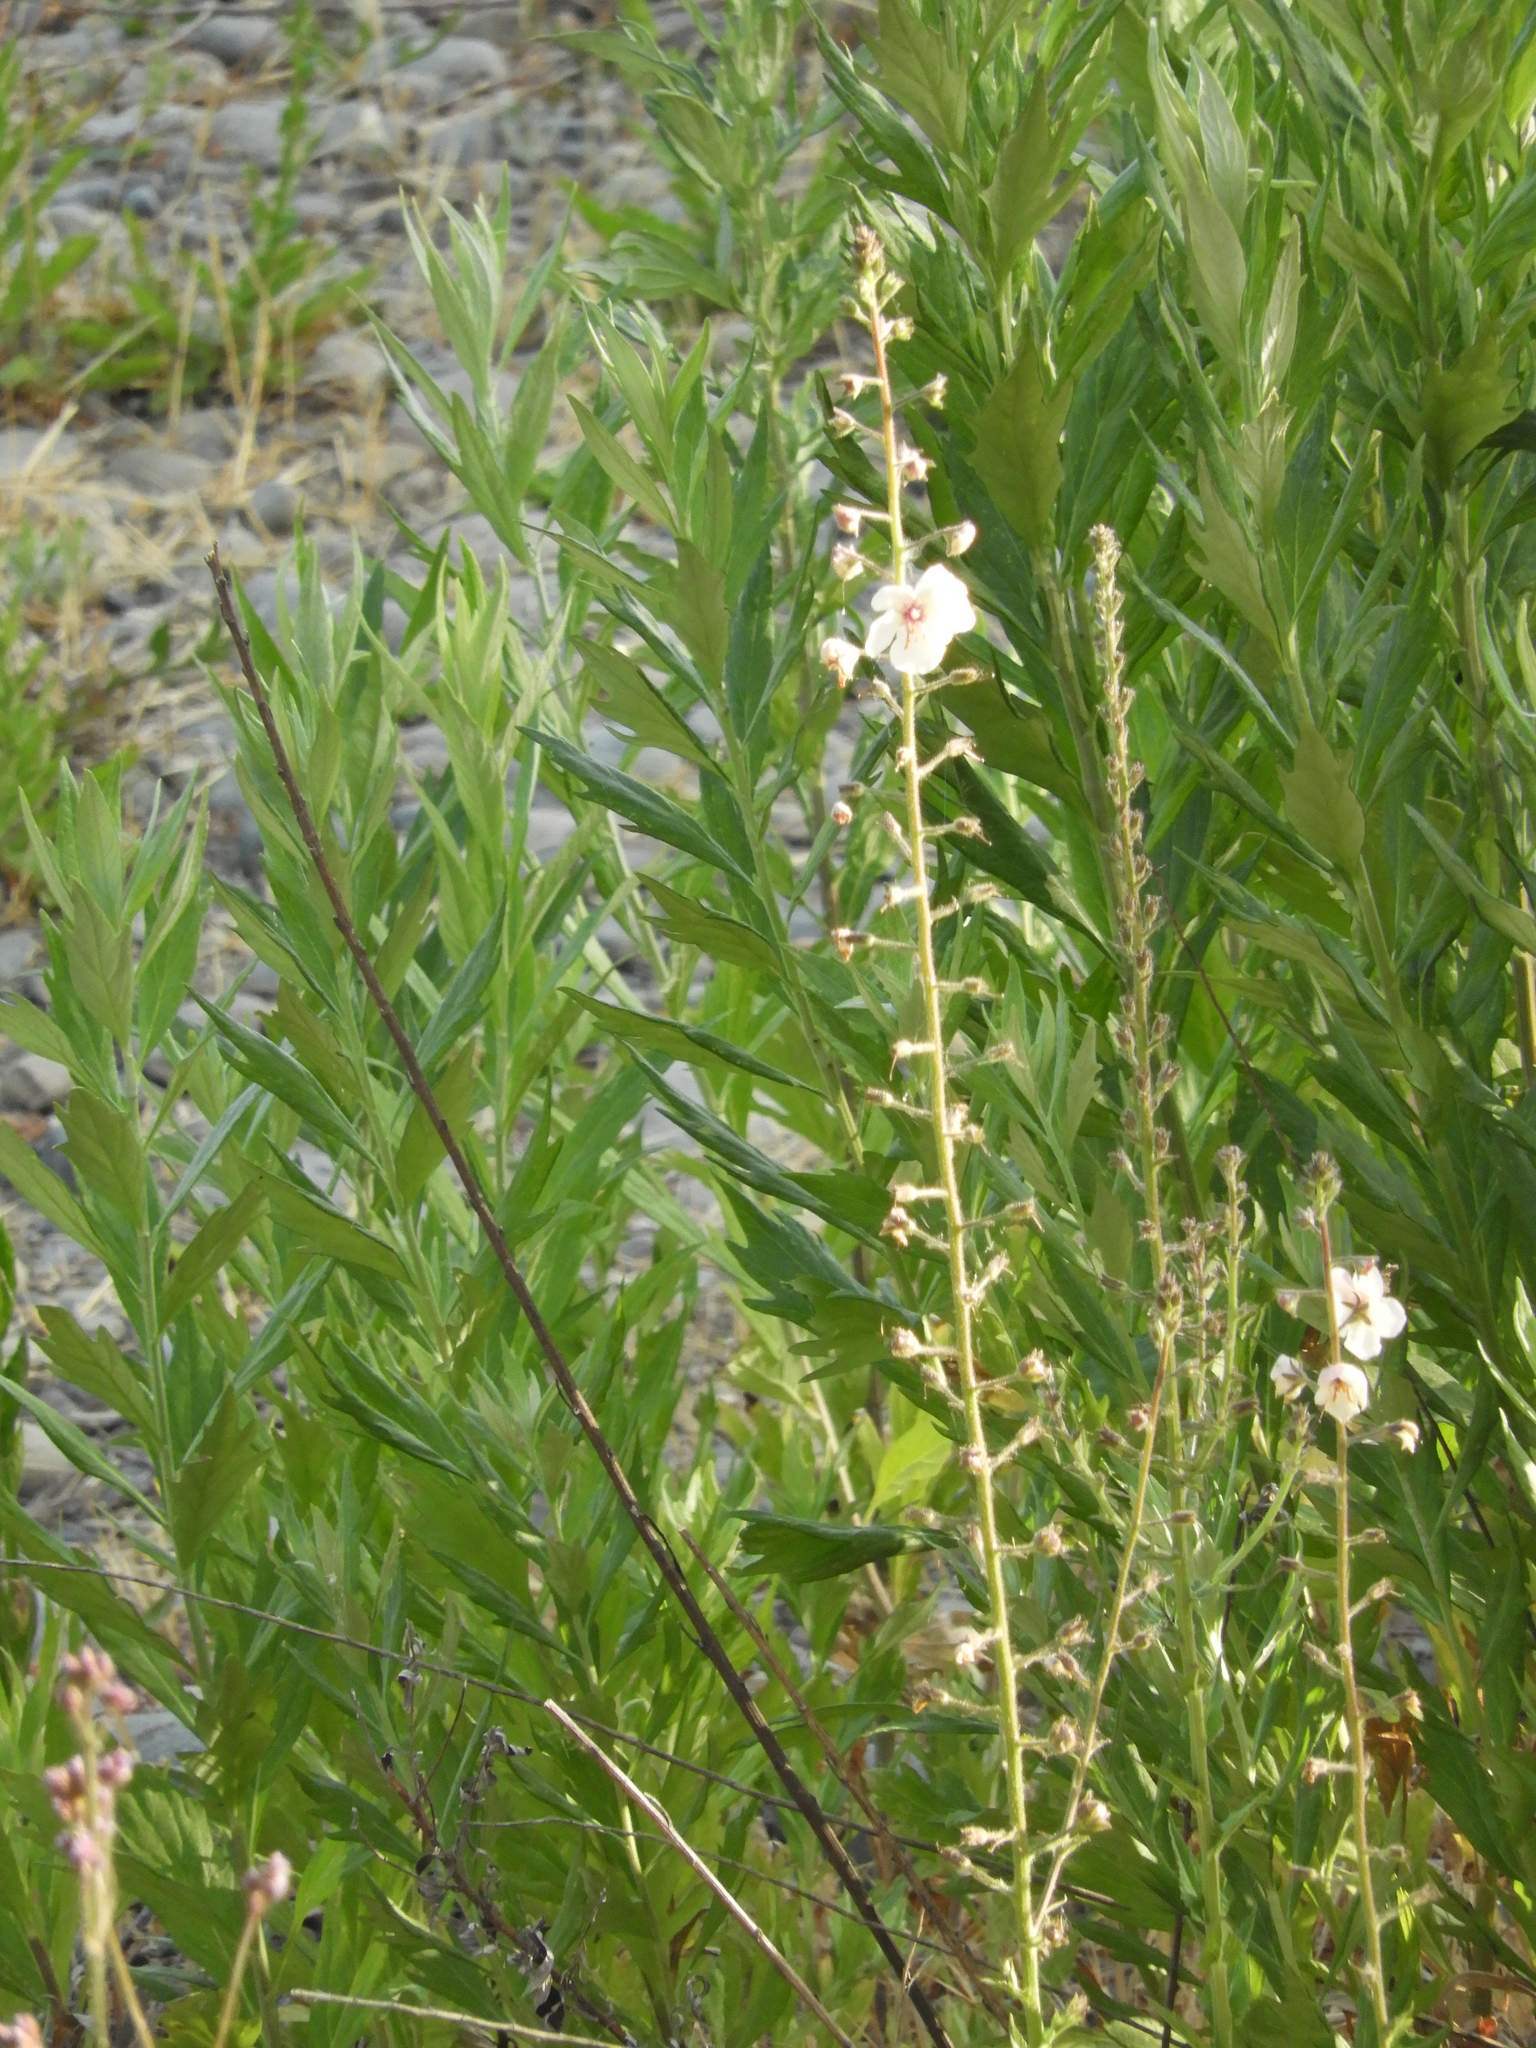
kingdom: Plantae
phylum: Tracheophyta
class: Magnoliopsida
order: Lamiales
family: Scrophulariaceae
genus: Verbascum
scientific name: Verbascum blattaria
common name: Moth mullein
